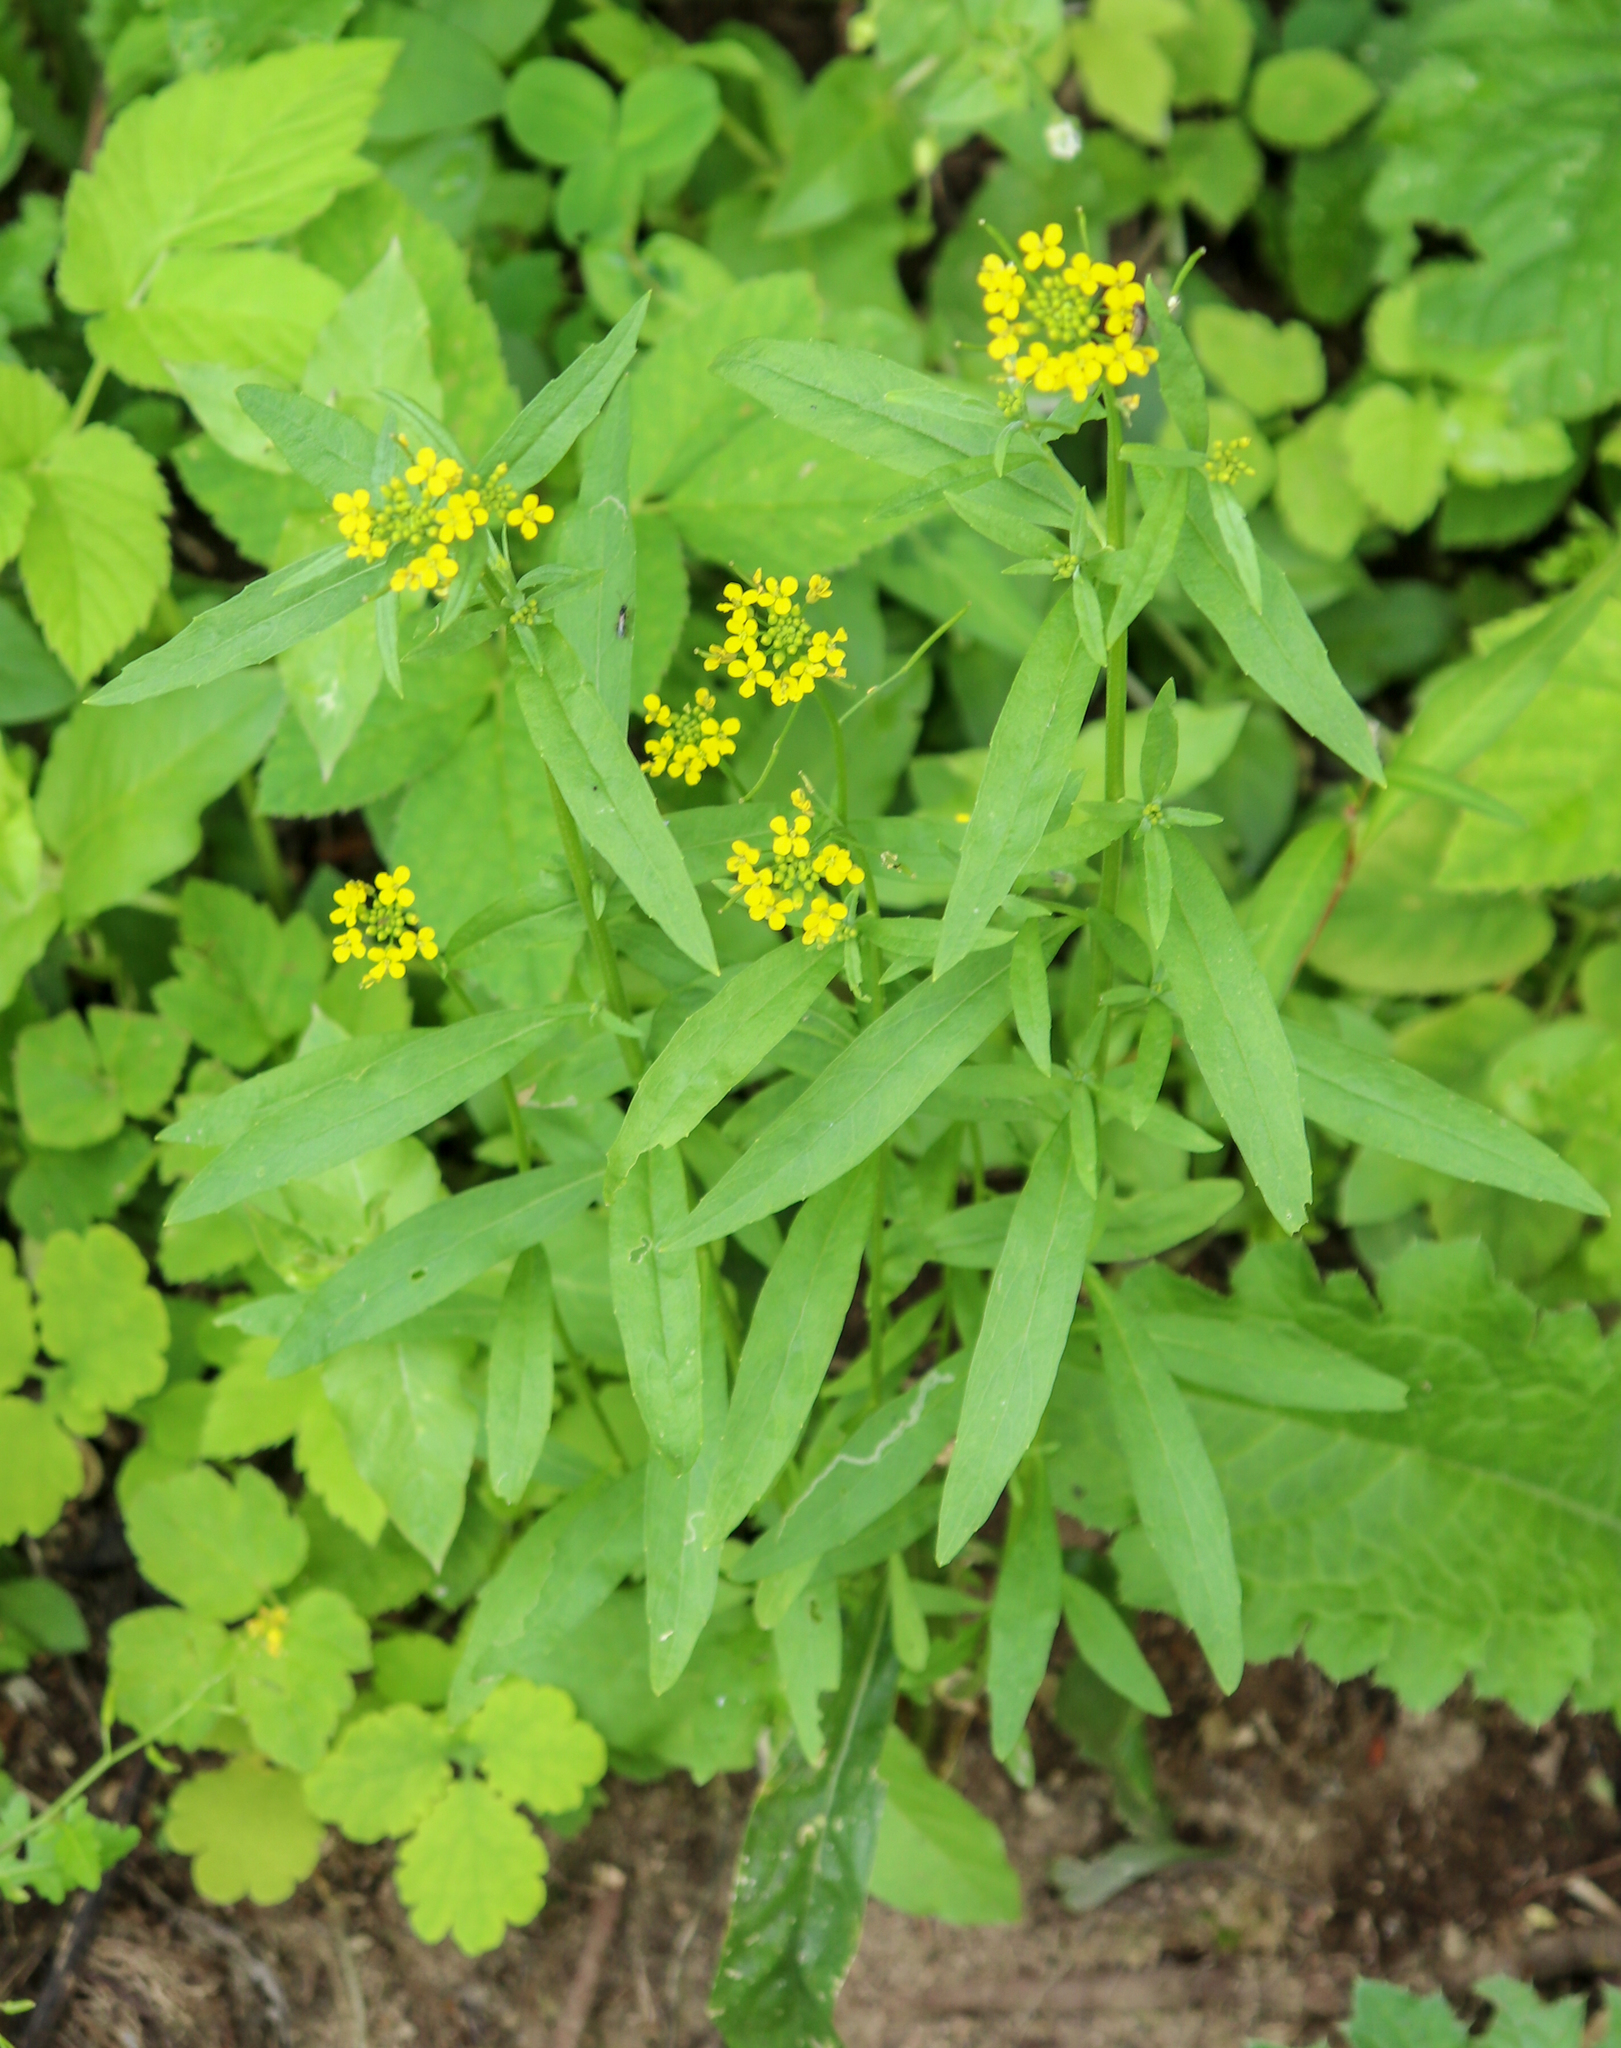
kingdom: Plantae
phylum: Tracheophyta
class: Magnoliopsida
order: Brassicales
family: Brassicaceae
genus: Erysimum
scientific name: Erysimum cheiranthoides
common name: Treacle mustard
